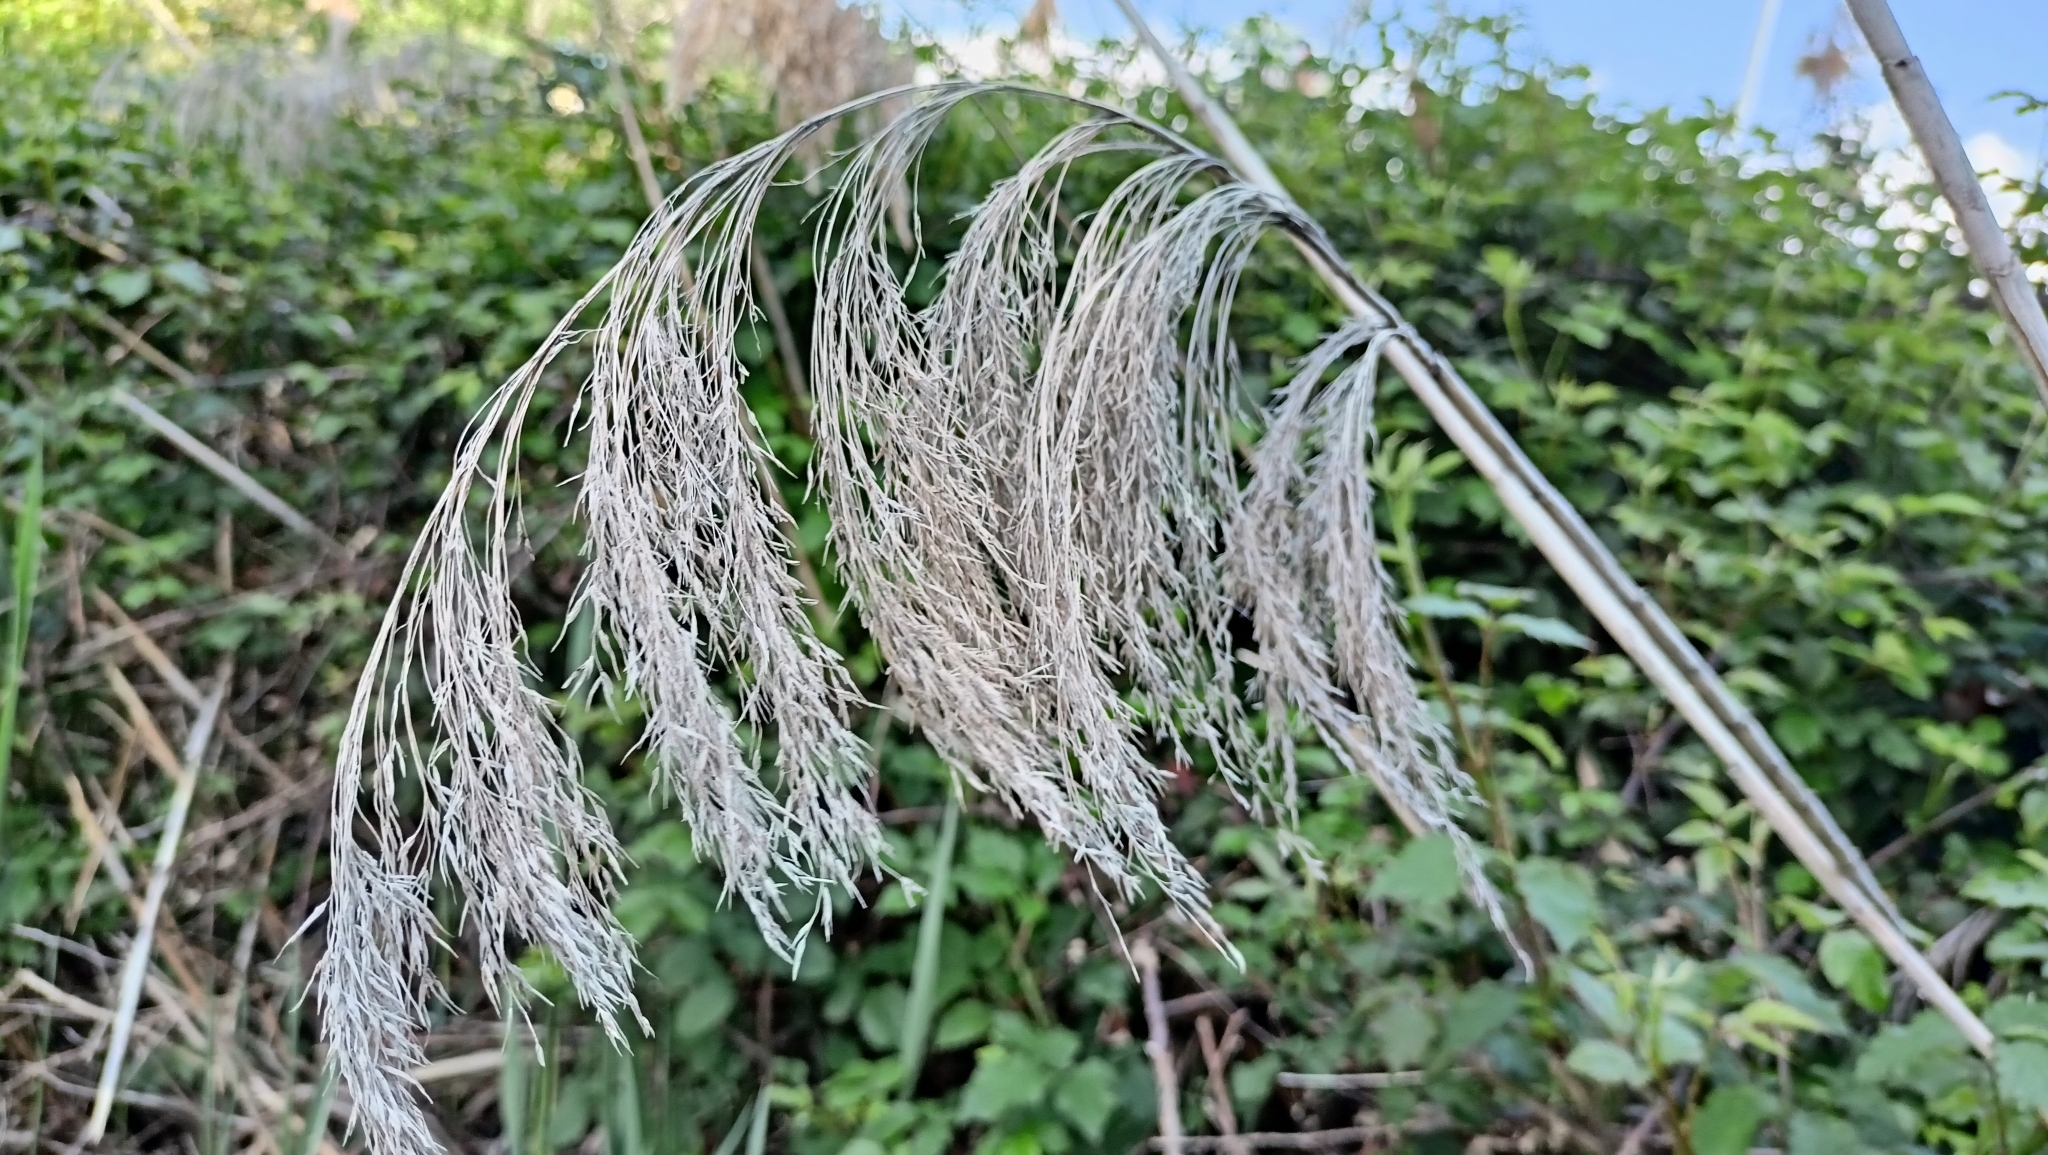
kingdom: Plantae
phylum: Tracheophyta
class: Liliopsida
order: Poales
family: Poaceae
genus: Phragmites
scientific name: Phragmites australis
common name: Common reed
